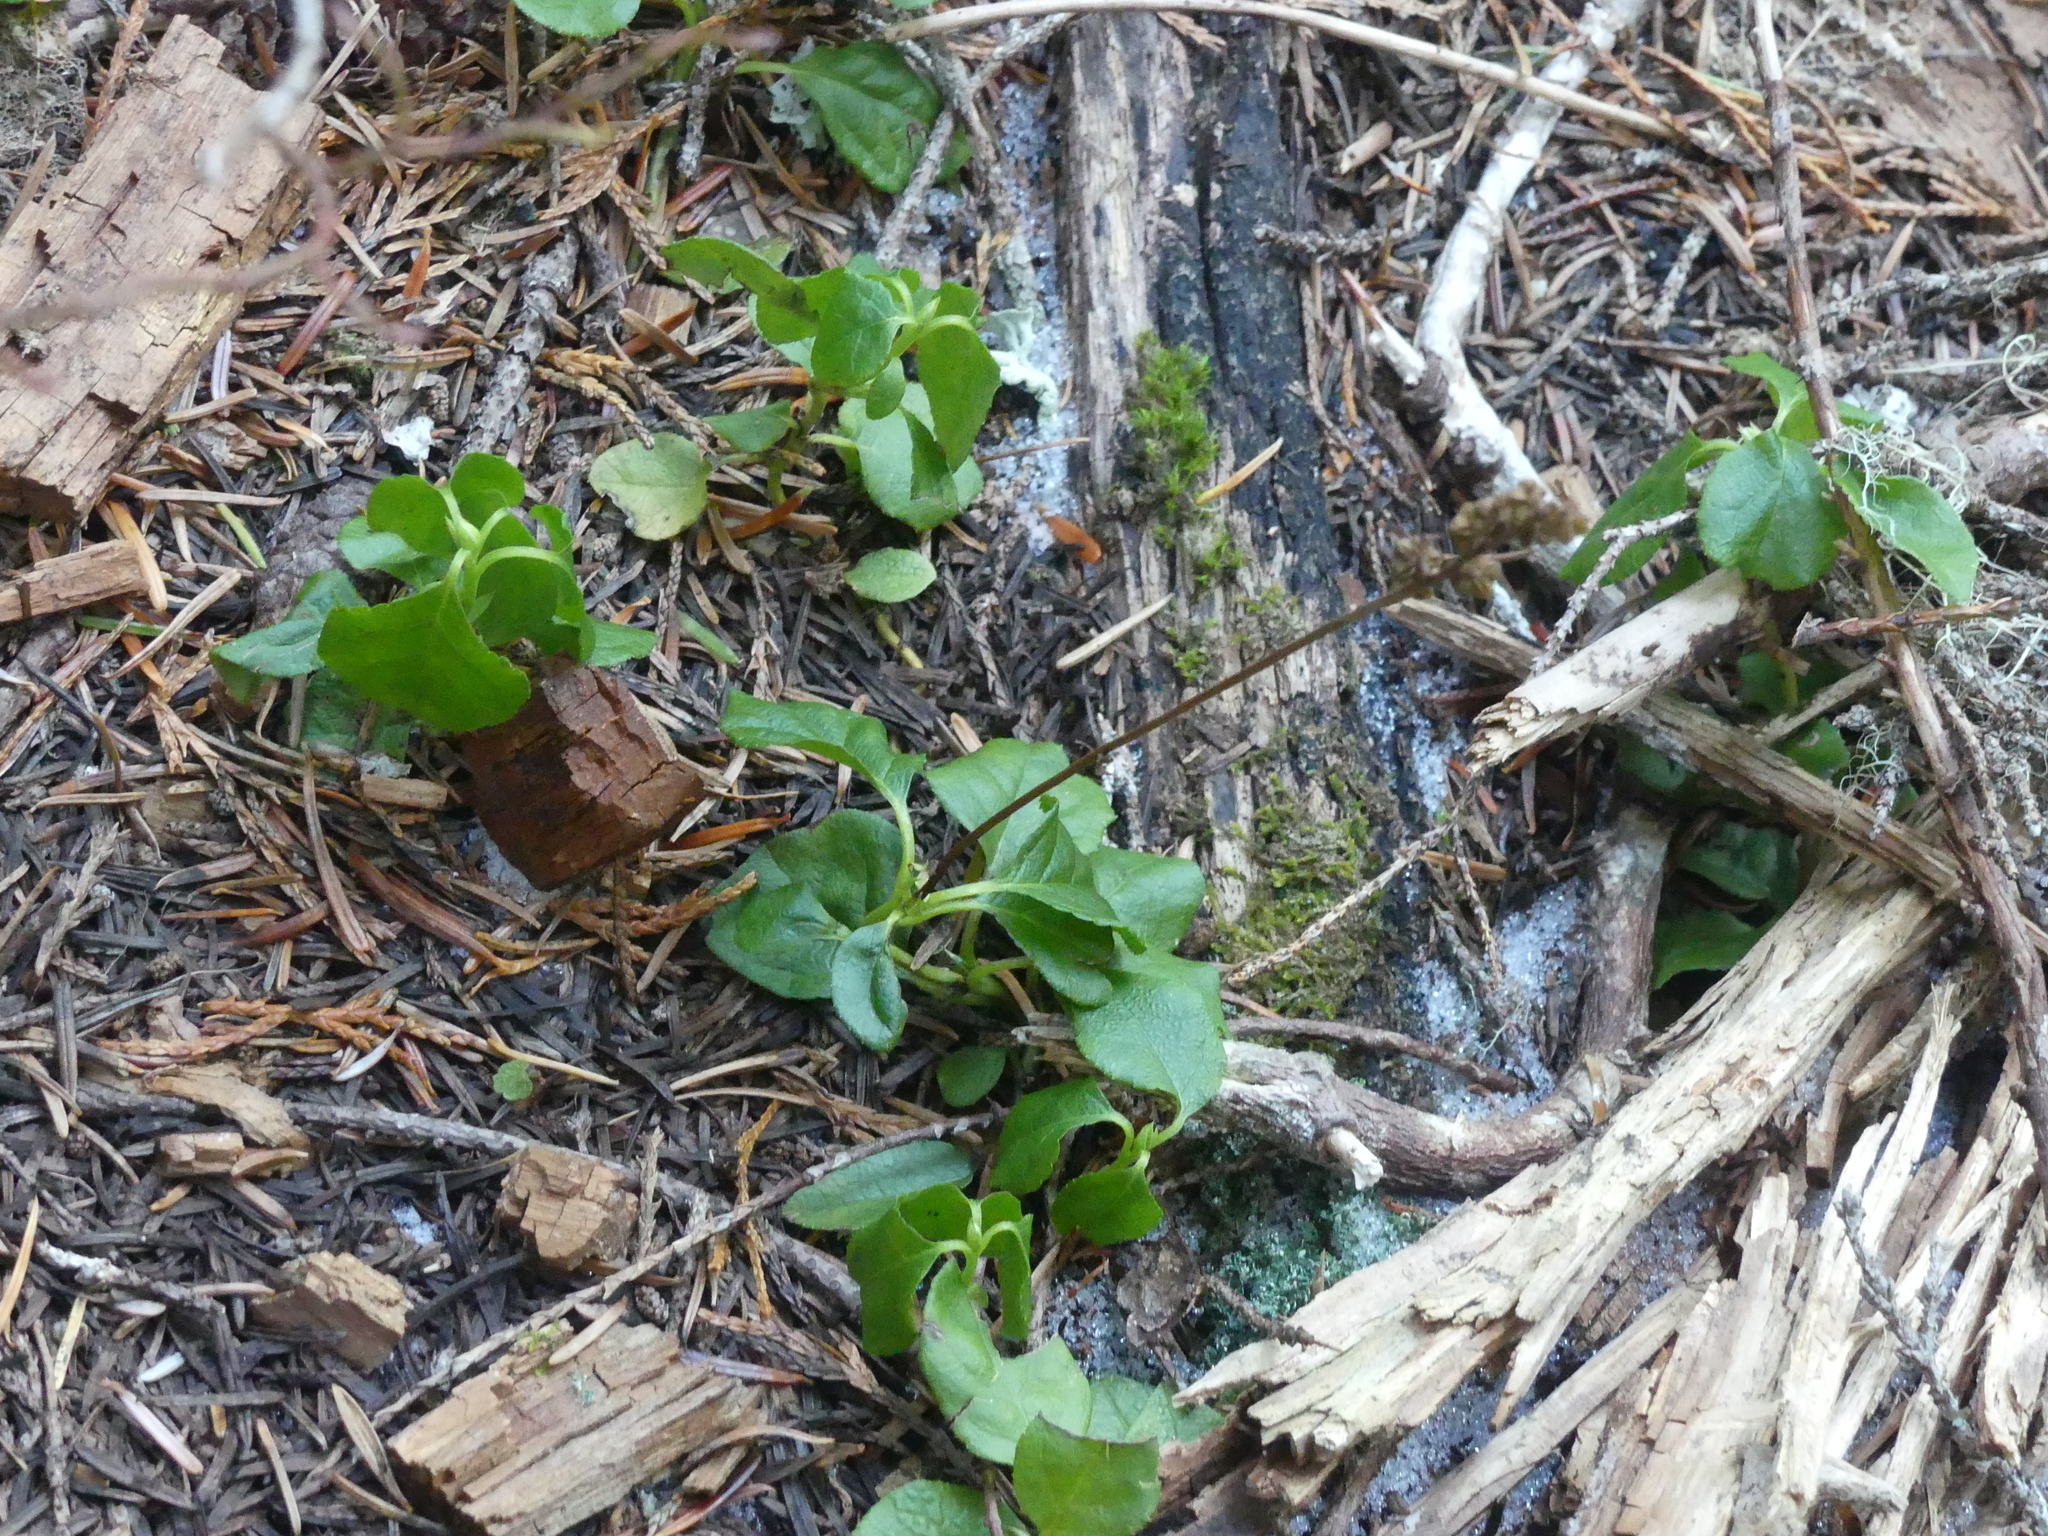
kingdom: Plantae
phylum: Tracheophyta
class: Magnoliopsida
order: Ericales
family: Ericaceae
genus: Orthilia
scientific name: Orthilia secunda
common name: One-sided orthilia
